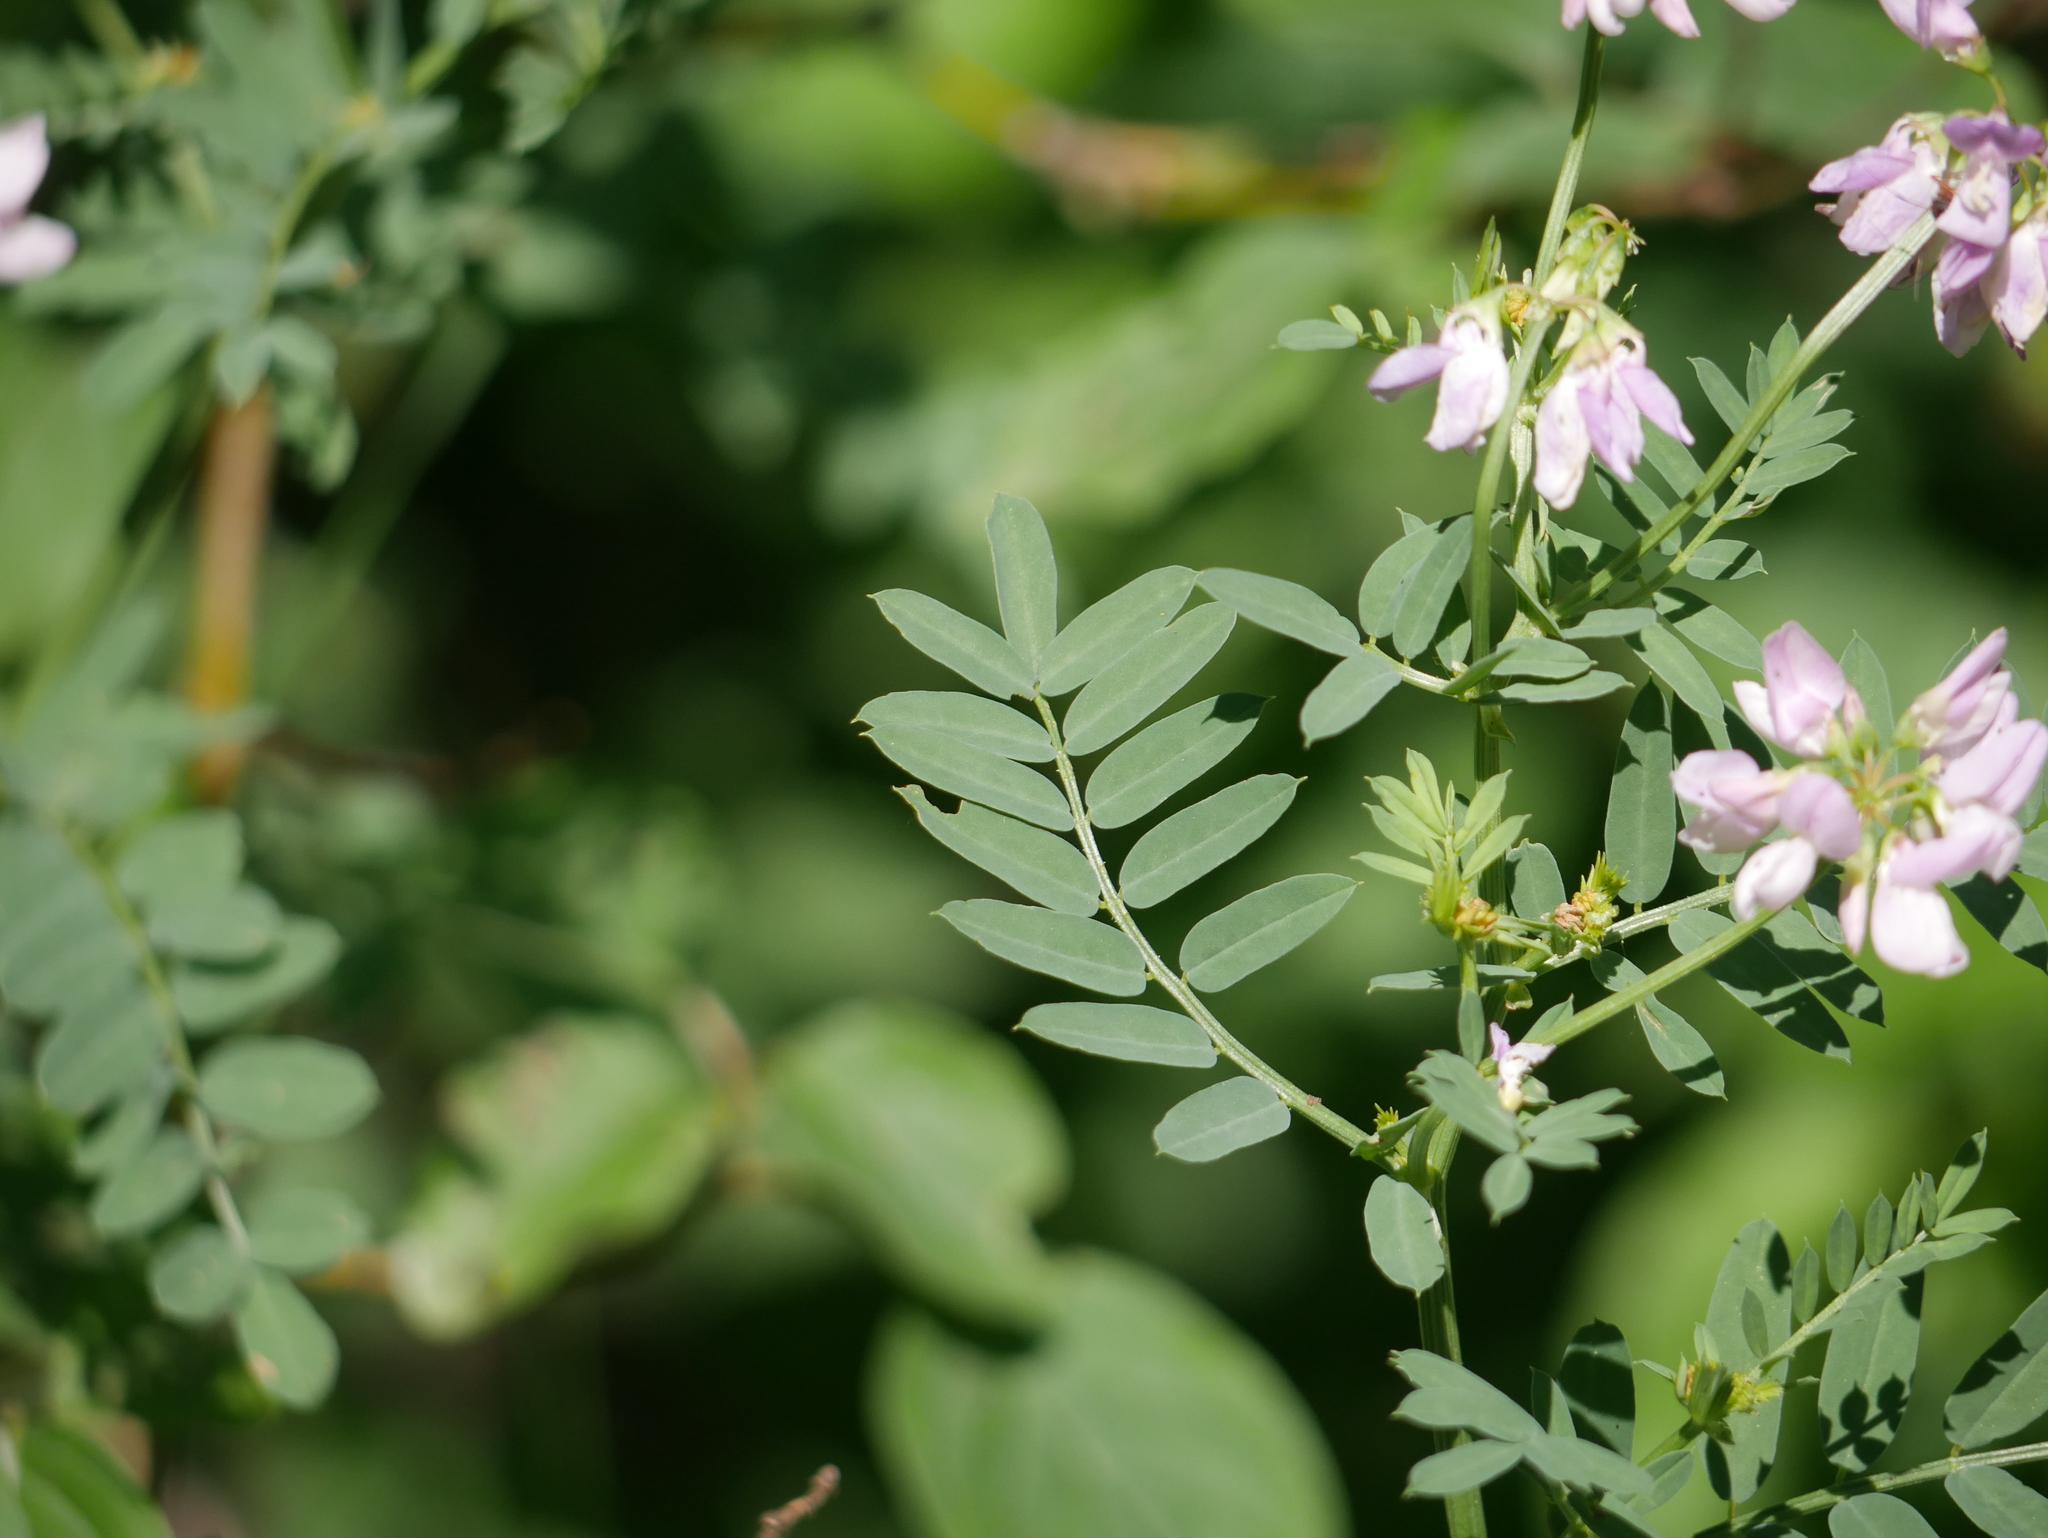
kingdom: Plantae
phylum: Tracheophyta
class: Magnoliopsida
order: Fabales
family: Fabaceae
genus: Coronilla
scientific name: Coronilla varia
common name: Crownvetch
